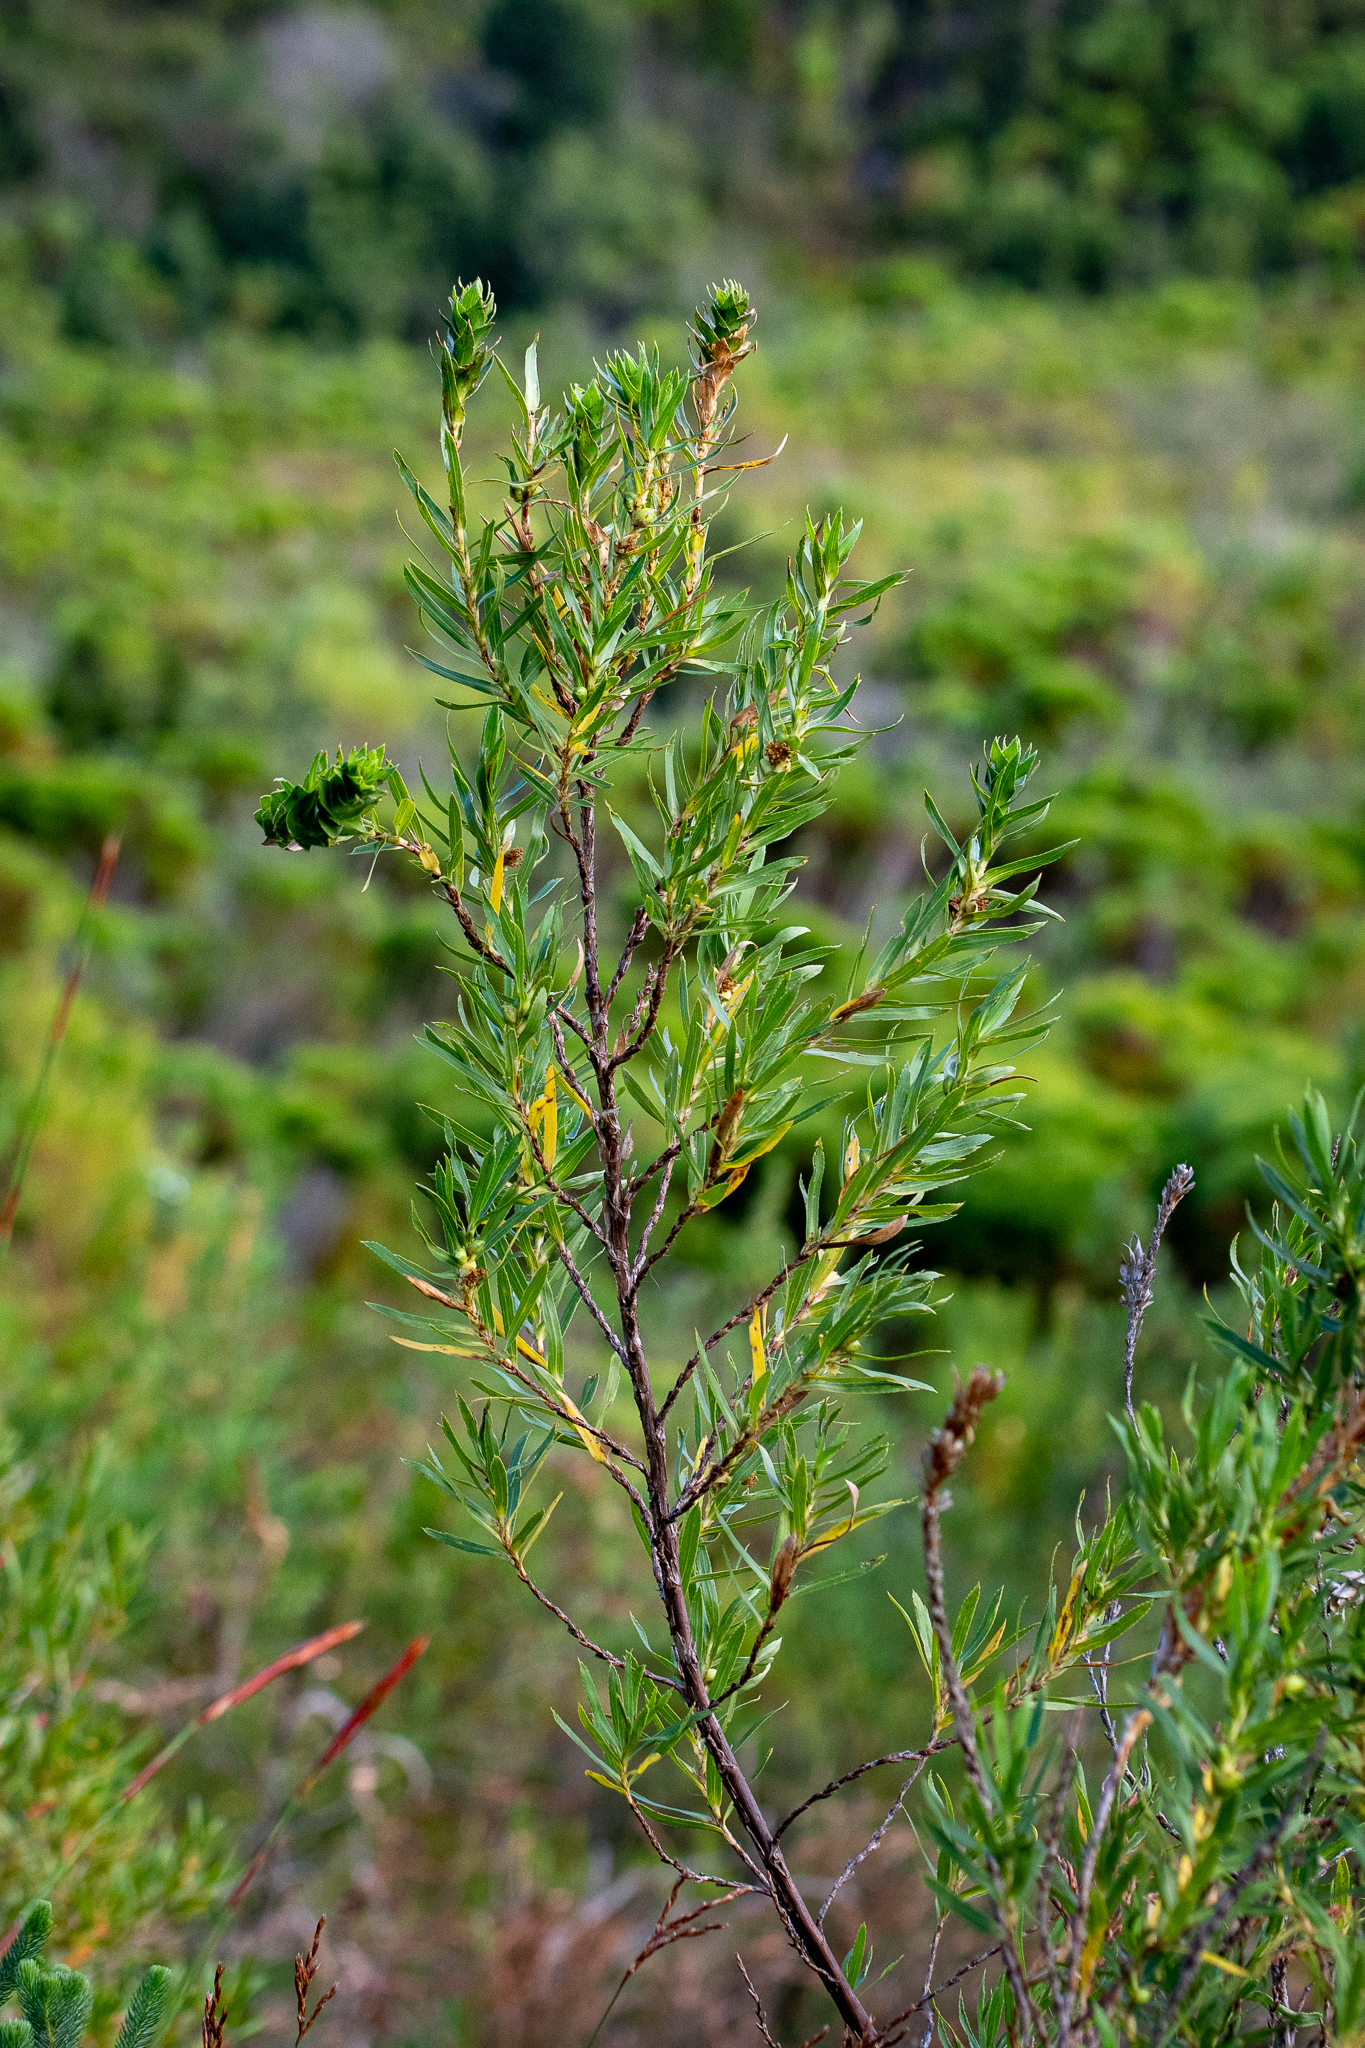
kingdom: Plantae
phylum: Tracheophyta
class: Magnoliopsida
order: Rosales
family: Rosaceae
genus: Cliffortia
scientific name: Cliffortia heterophylla
